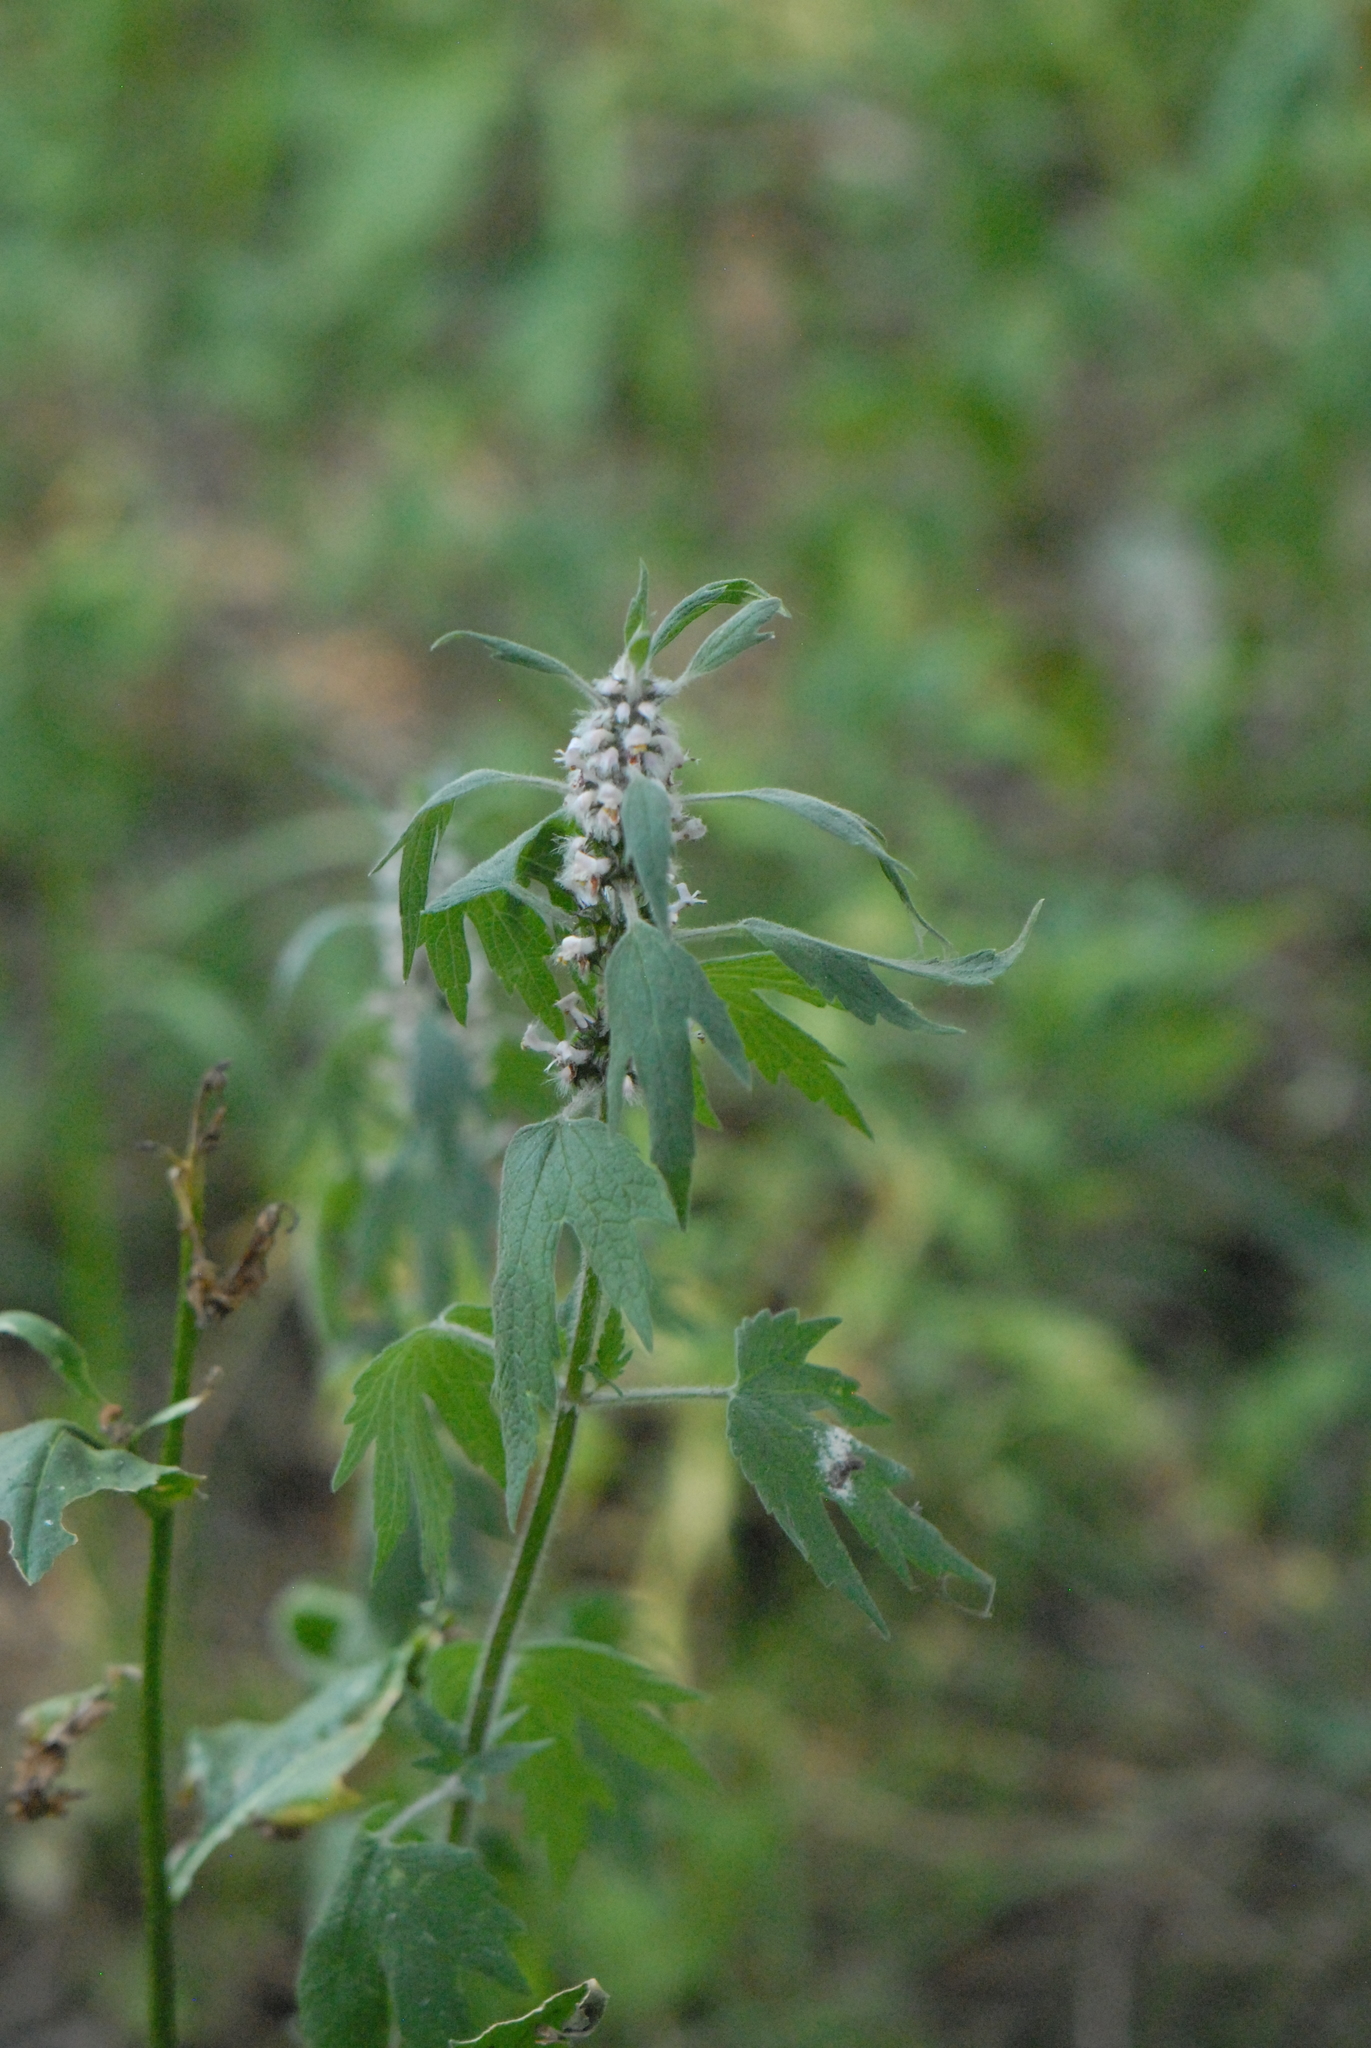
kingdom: Plantae
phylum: Tracheophyta
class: Magnoliopsida
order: Lamiales
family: Lamiaceae
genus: Leonurus
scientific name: Leonurus quinquelobatus
